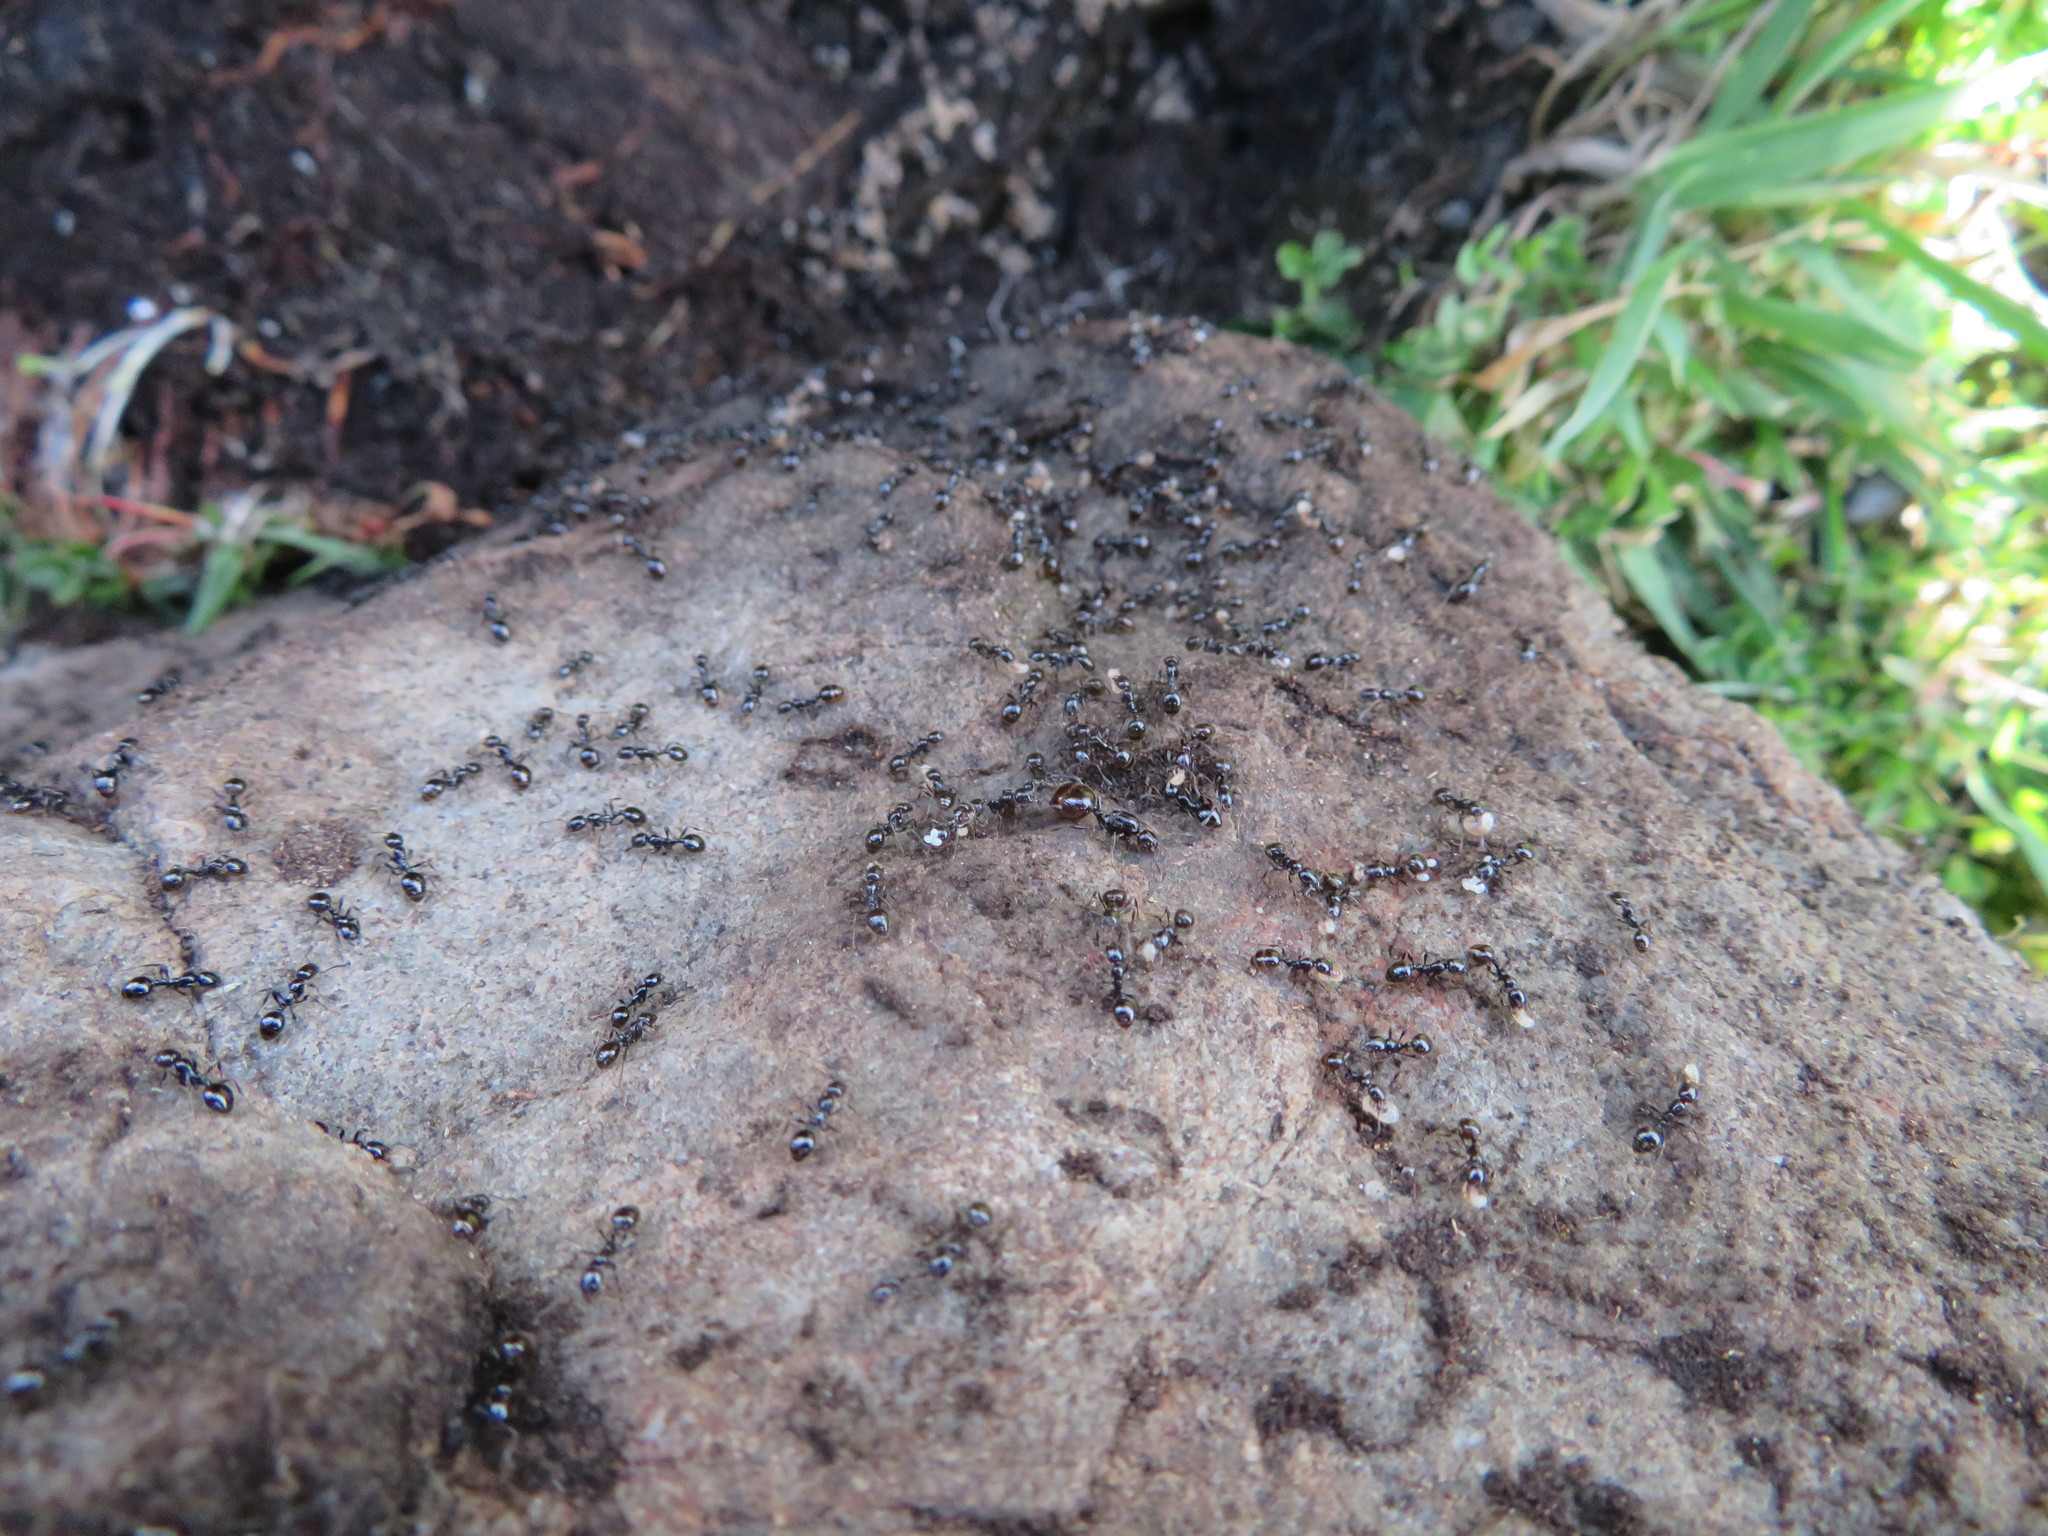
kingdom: Animalia
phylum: Arthropoda
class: Insecta
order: Hymenoptera
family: Formicidae
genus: Monomorium
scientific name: Monomorium antarcticum
